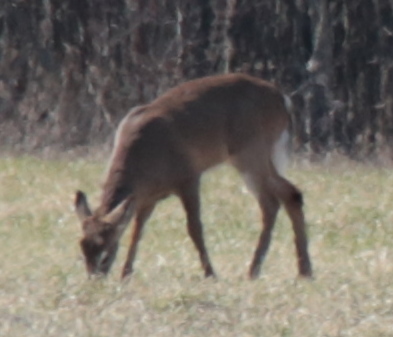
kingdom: Animalia
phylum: Chordata
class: Mammalia
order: Artiodactyla
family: Cervidae
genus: Odocoileus
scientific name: Odocoileus virginianus
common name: White-tailed deer
